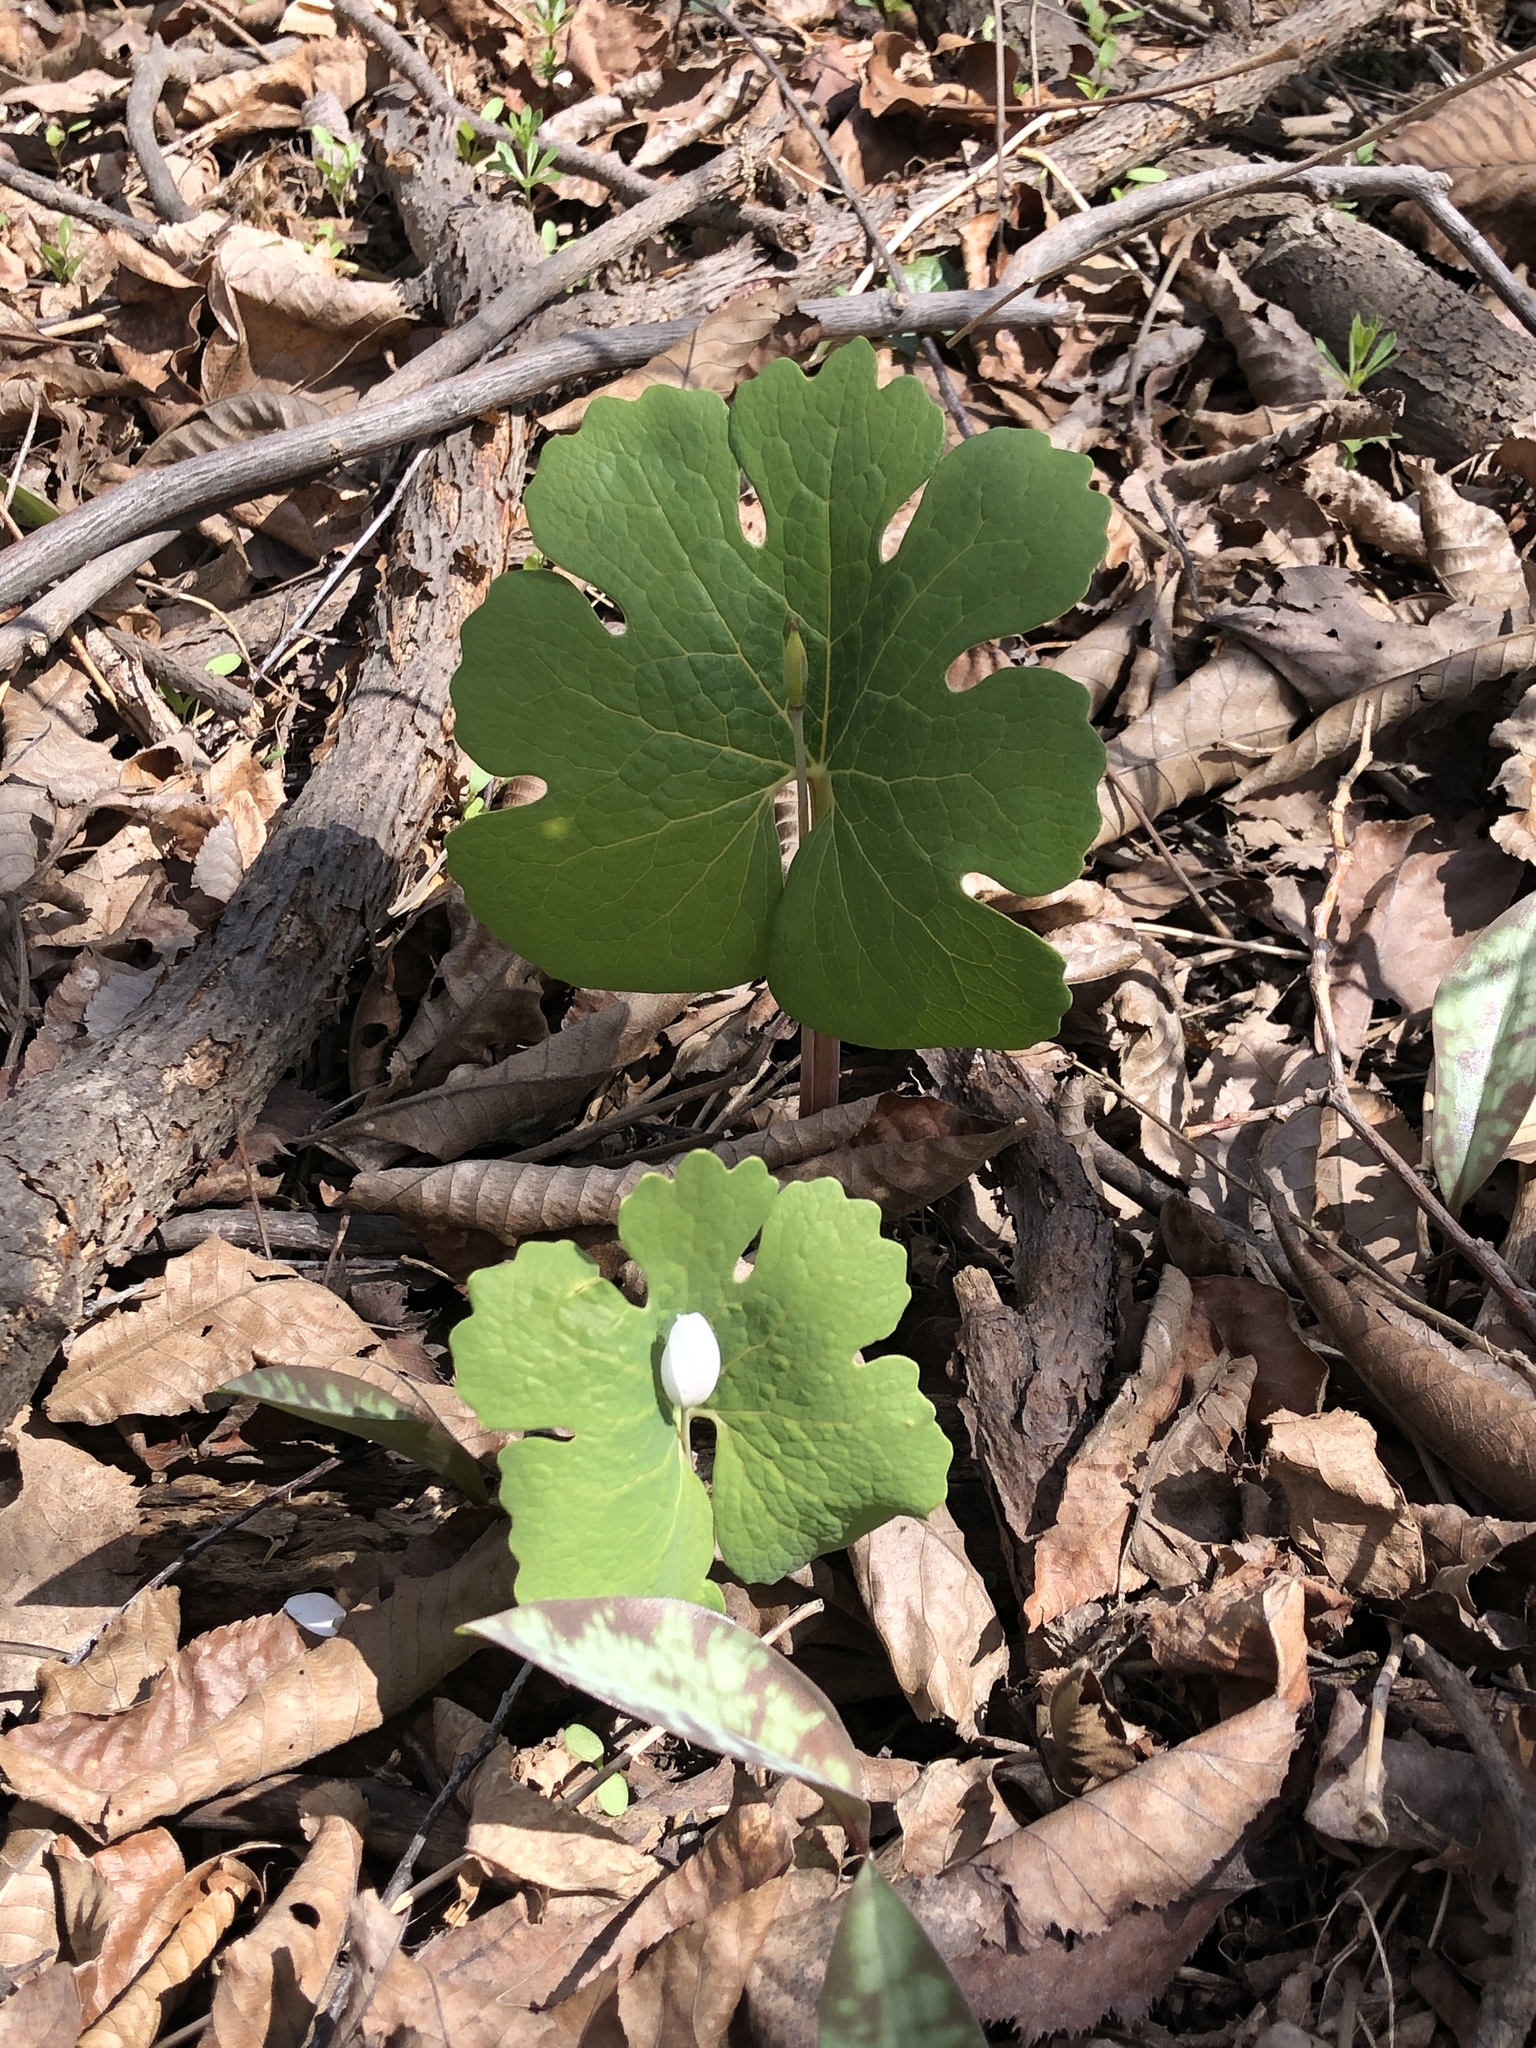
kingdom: Plantae
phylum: Tracheophyta
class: Magnoliopsida
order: Ranunculales
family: Papaveraceae
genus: Sanguinaria
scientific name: Sanguinaria canadensis
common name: Bloodroot
